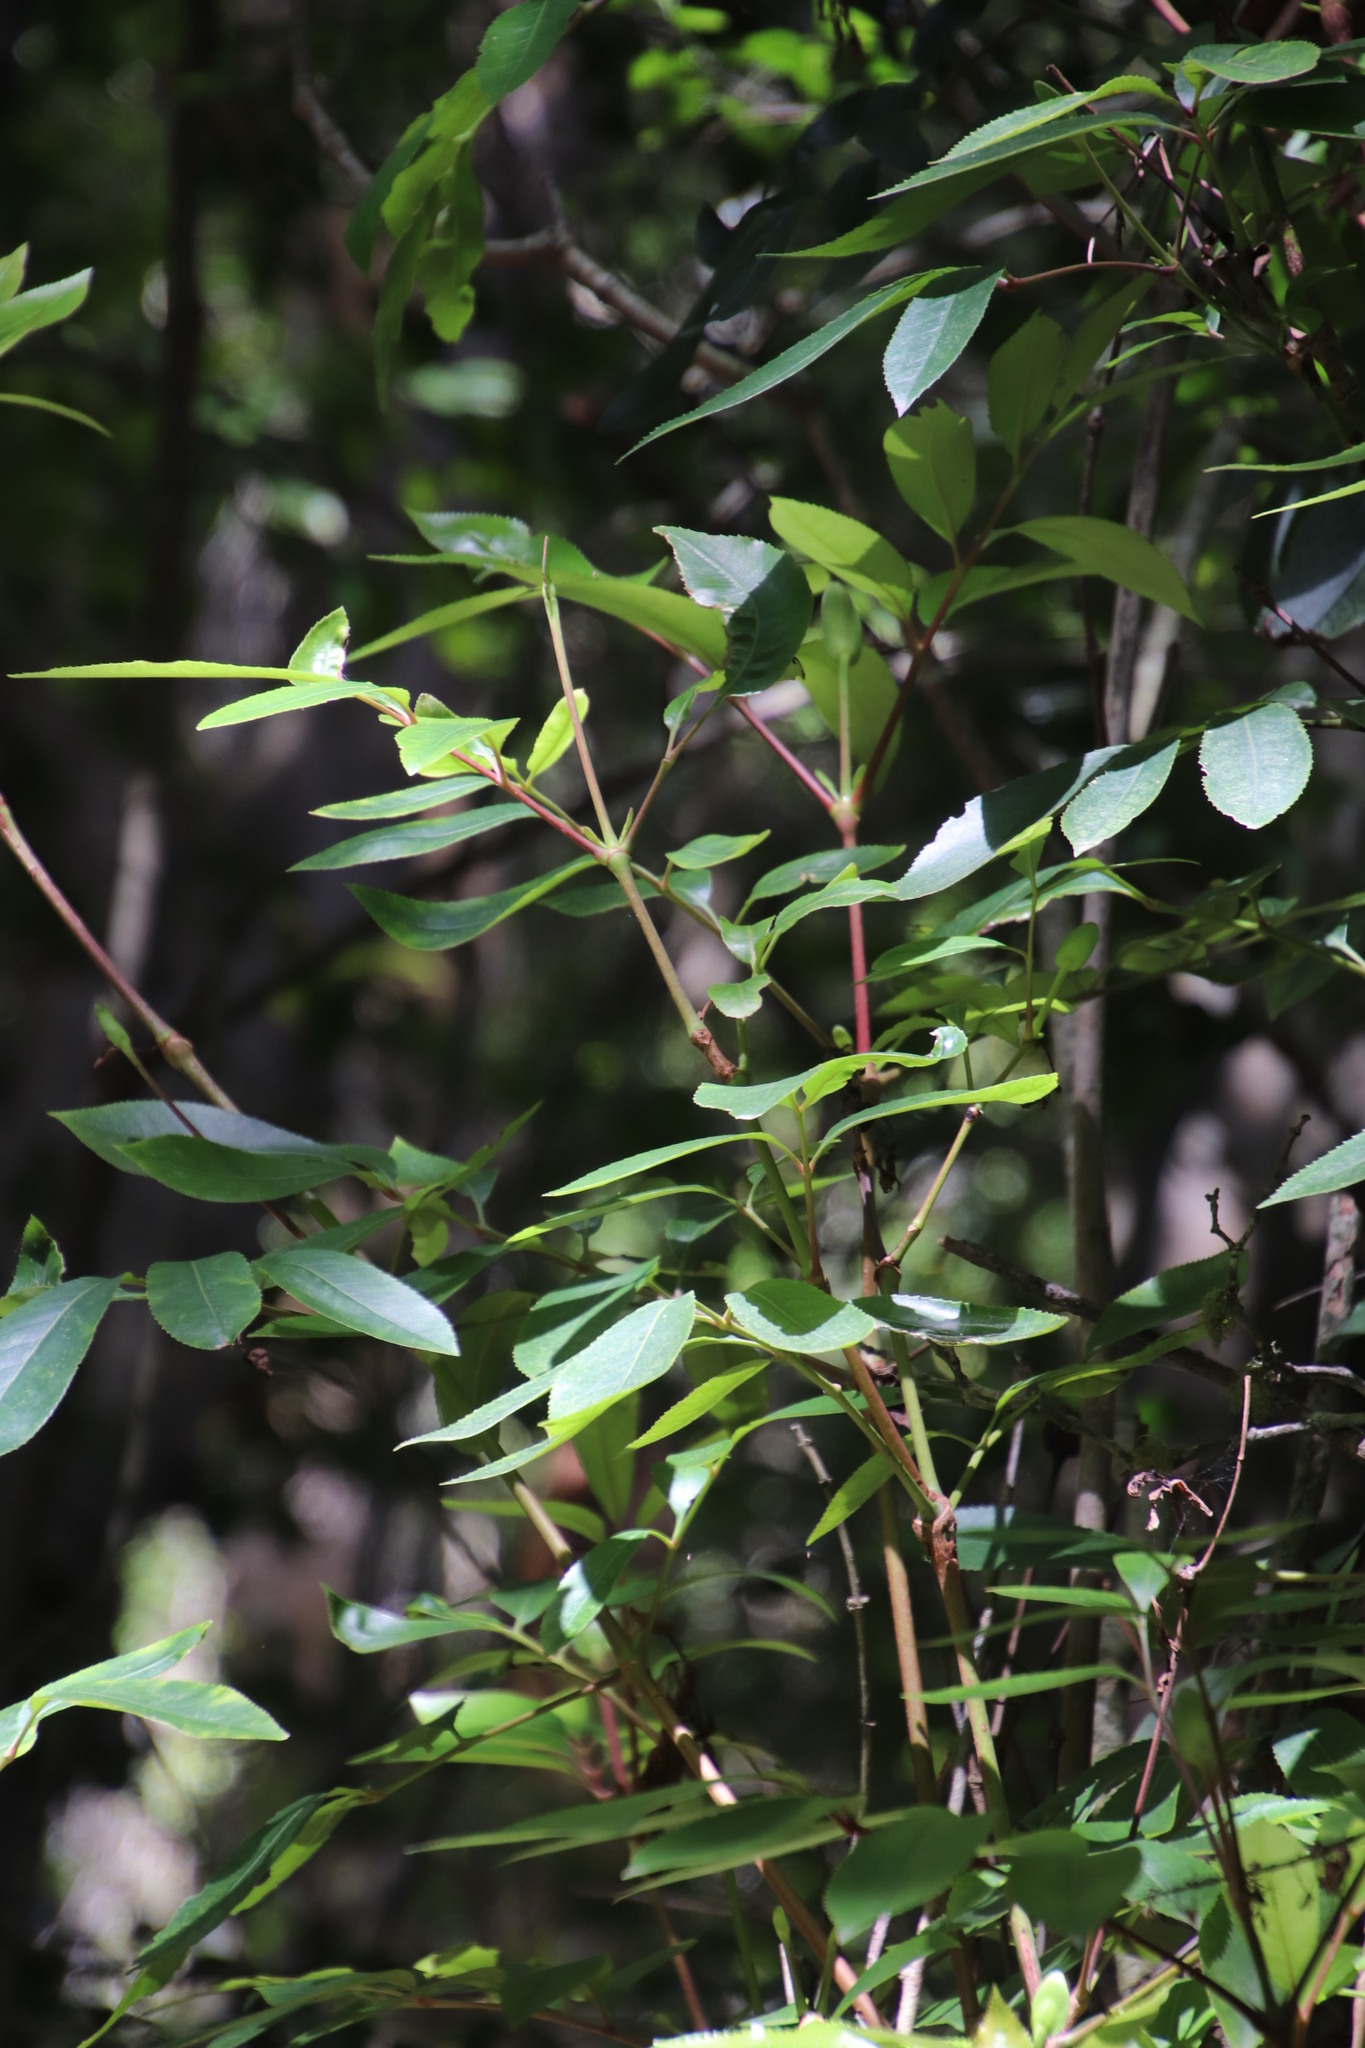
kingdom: Plantae
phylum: Tracheophyta
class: Magnoliopsida
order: Oxalidales
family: Cunoniaceae
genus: Cunonia
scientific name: Cunonia capensis
